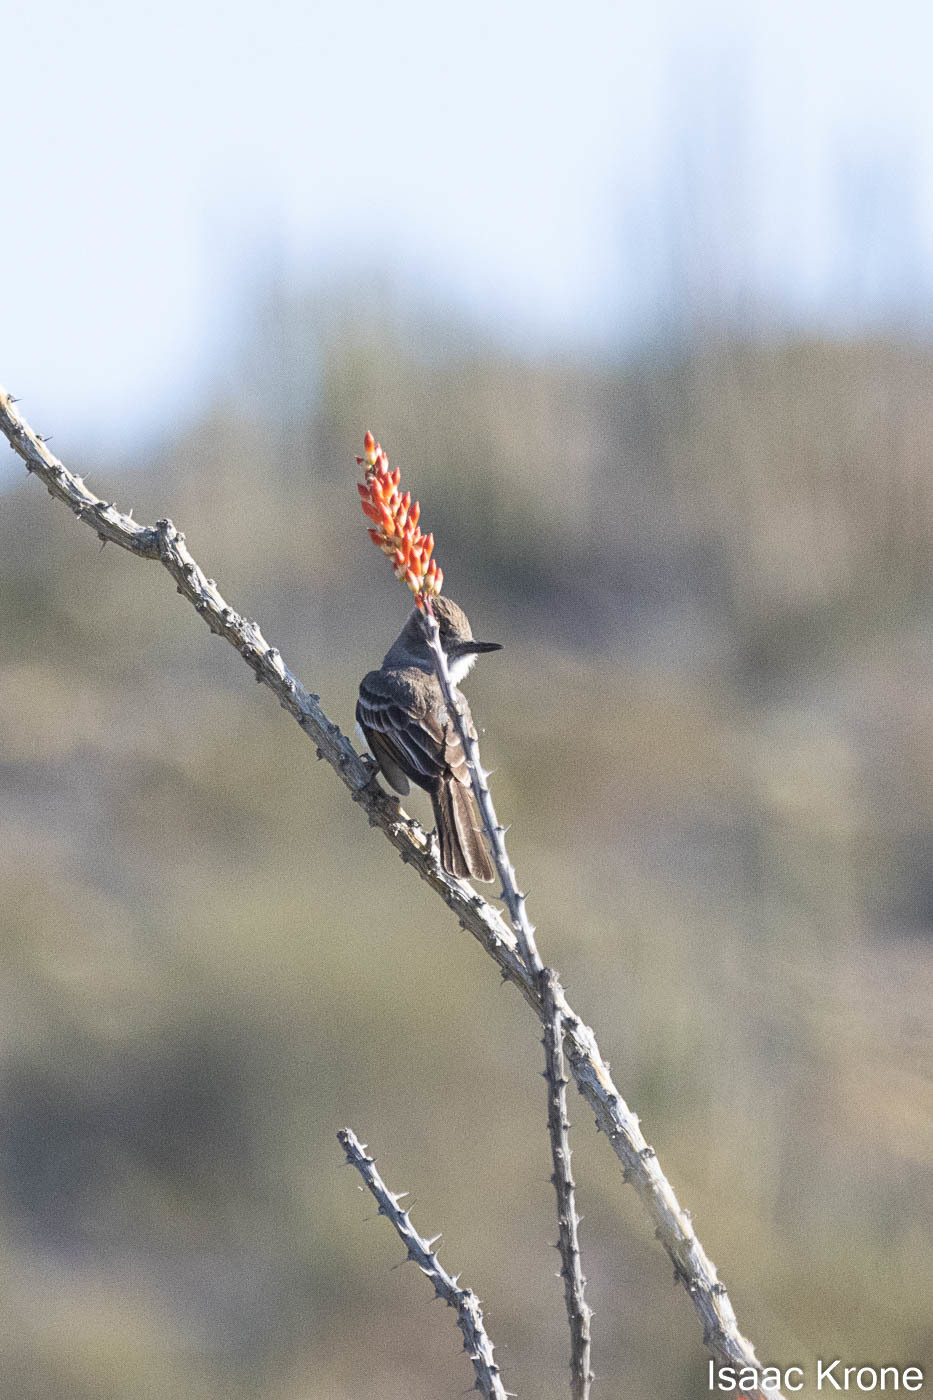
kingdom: Animalia
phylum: Chordata
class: Aves
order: Passeriformes
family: Tyrannidae
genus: Myiarchus
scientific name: Myiarchus cinerascens
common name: Ash-throated flycatcher
